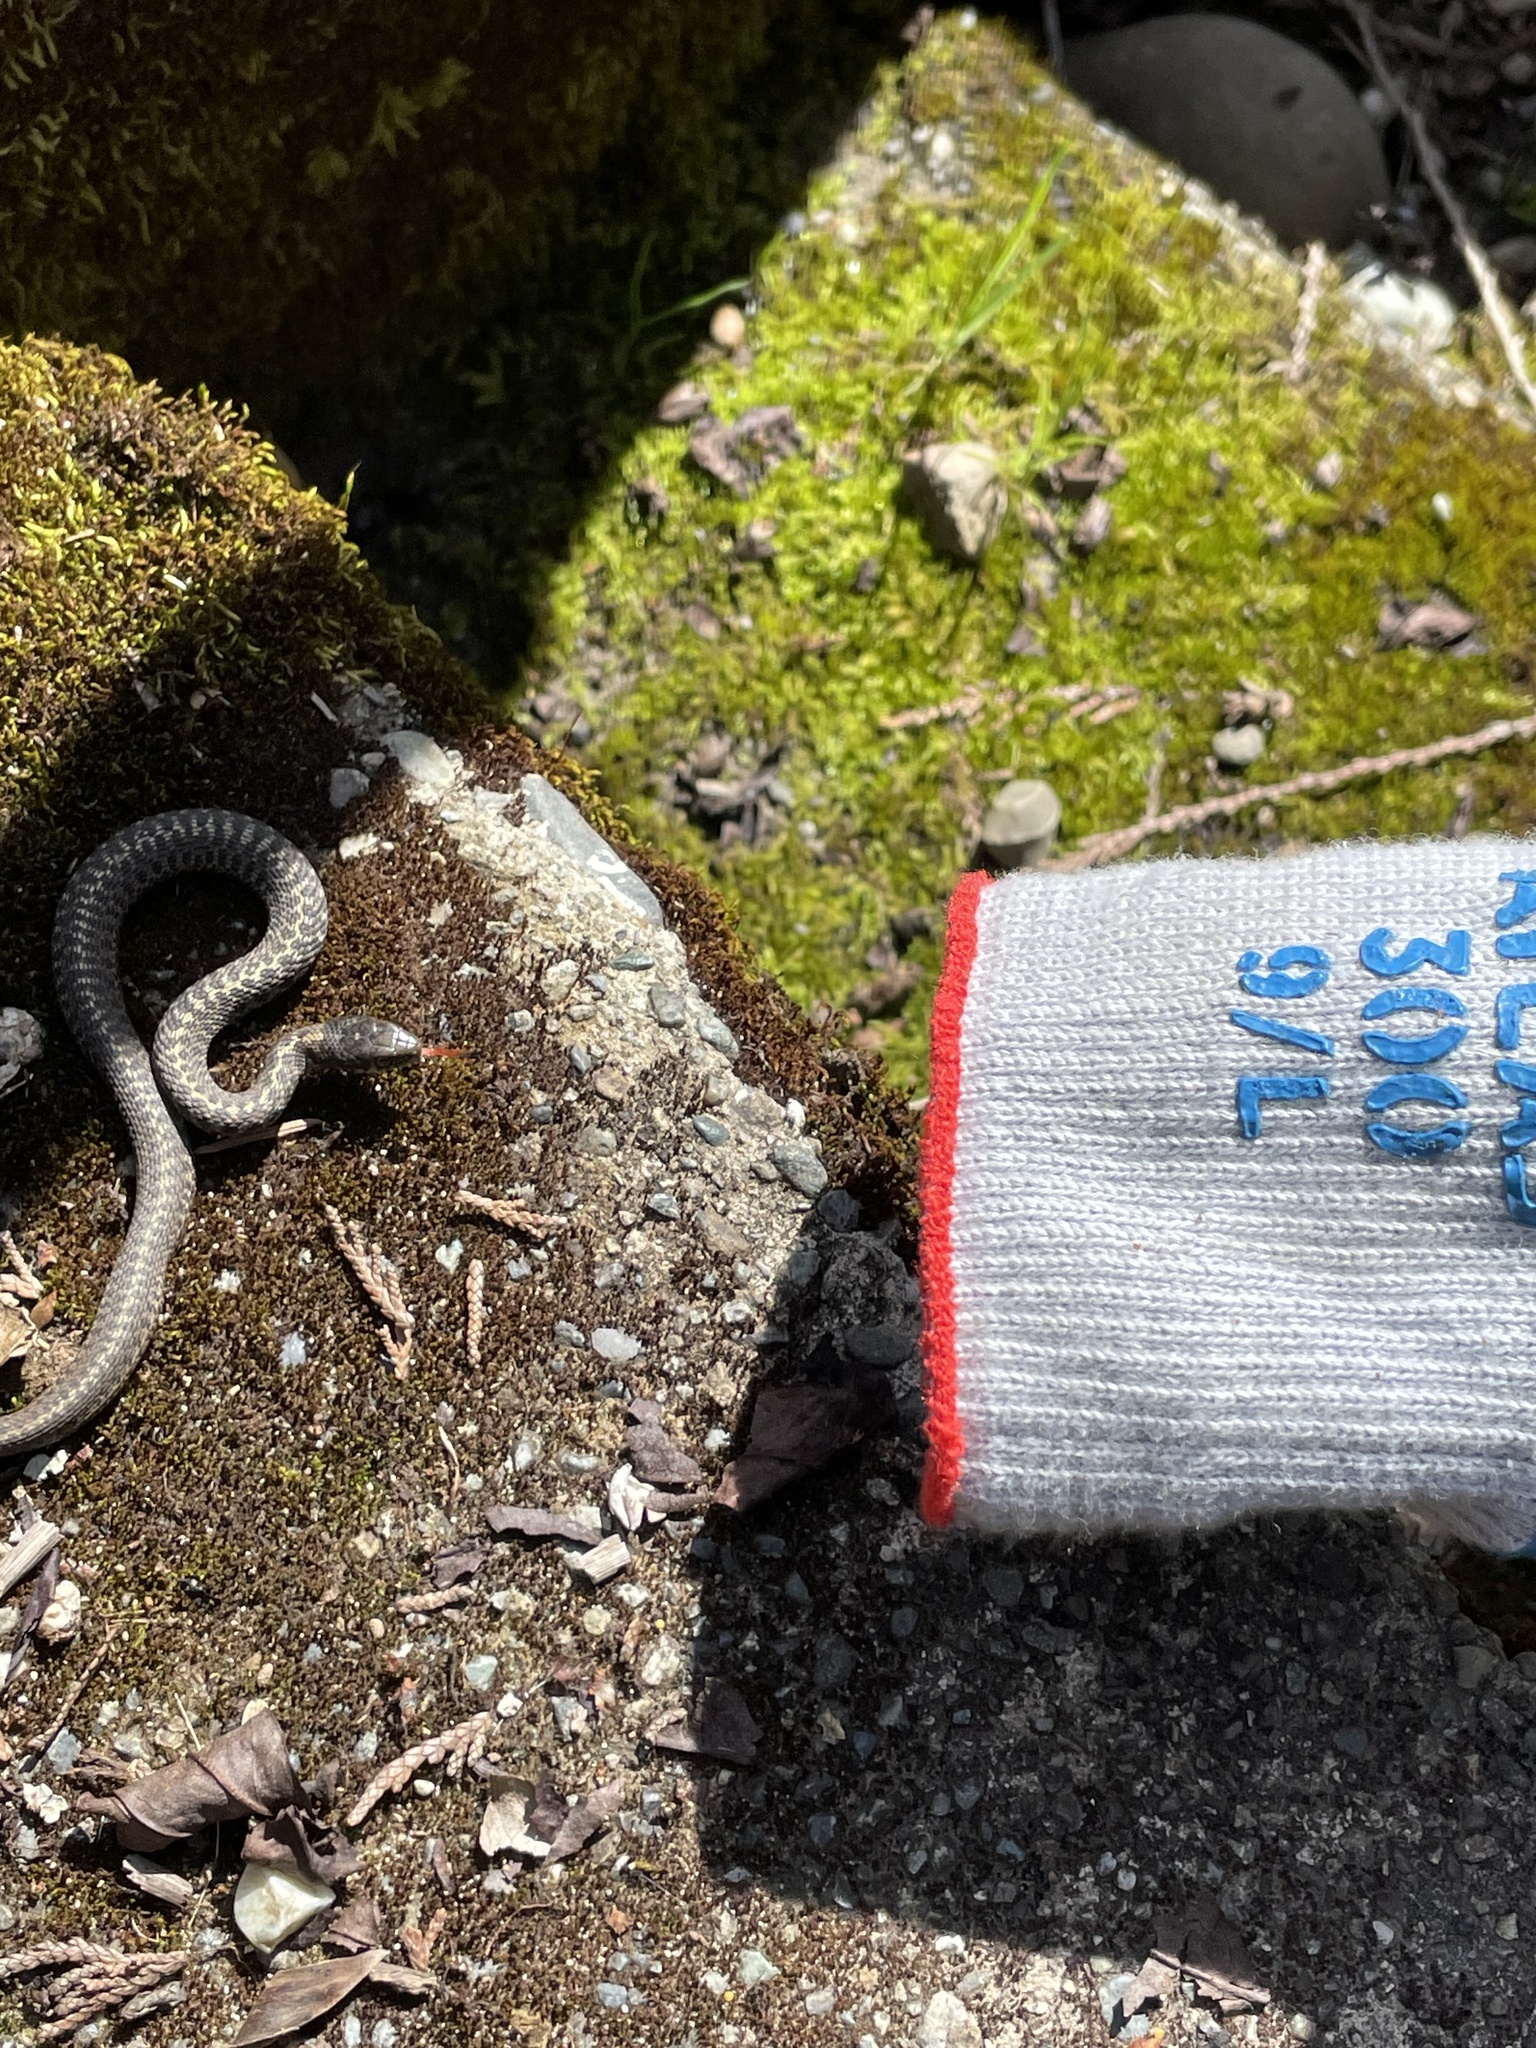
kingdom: Animalia
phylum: Chordata
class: Squamata
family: Colubridae
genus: Thamnophis
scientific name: Thamnophis elegans
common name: Western terrestrial garter snake
